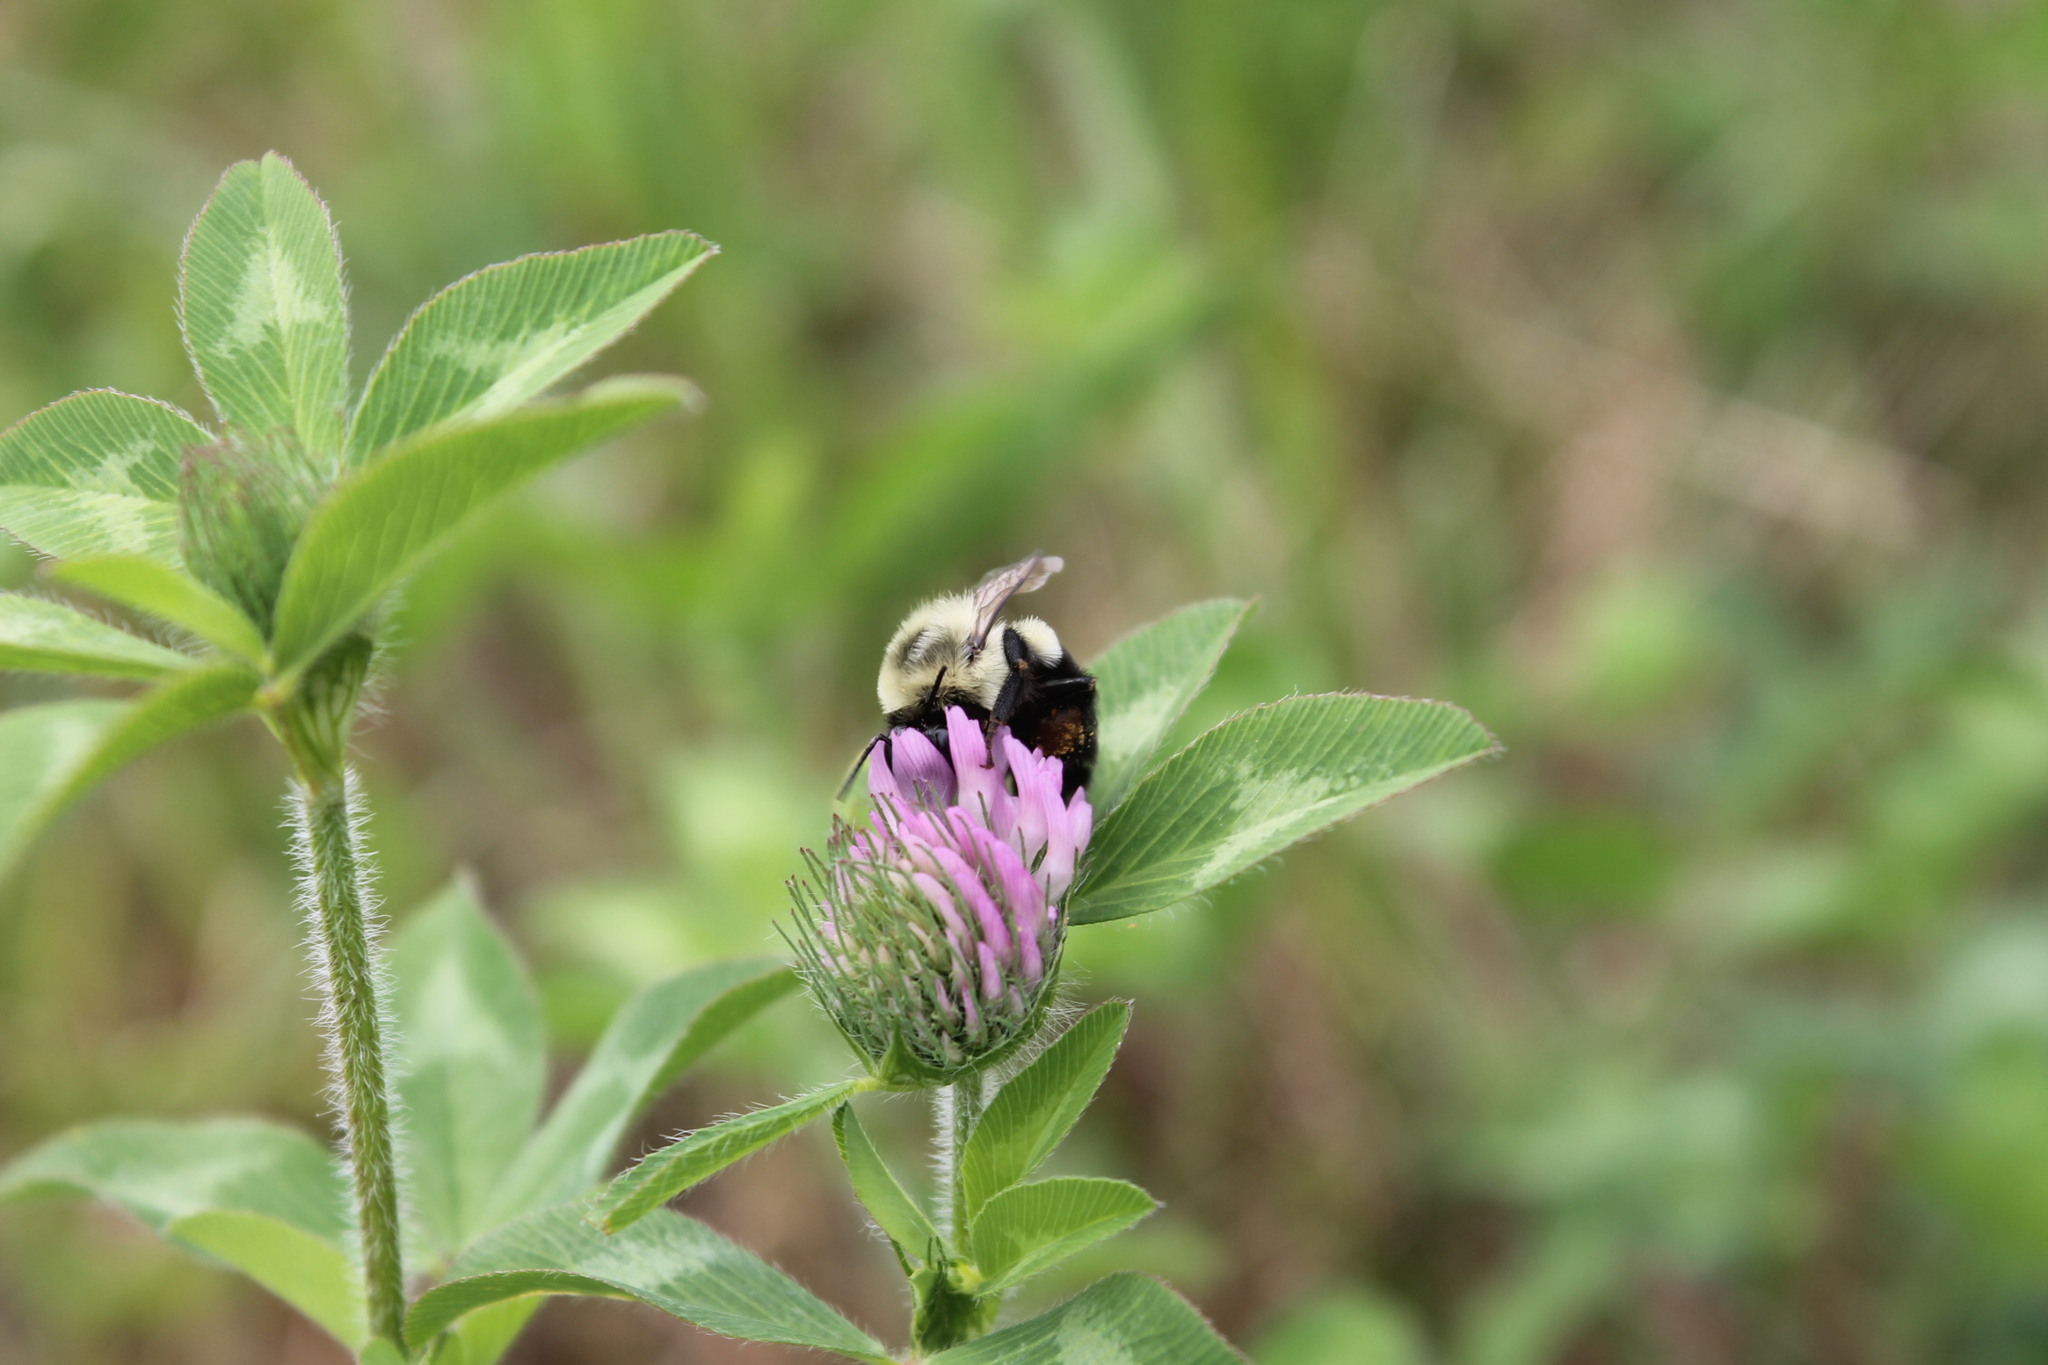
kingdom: Animalia
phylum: Arthropoda
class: Insecta
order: Hymenoptera
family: Apidae
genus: Bombus
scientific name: Bombus impatiens
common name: Common eastern bumble bee
